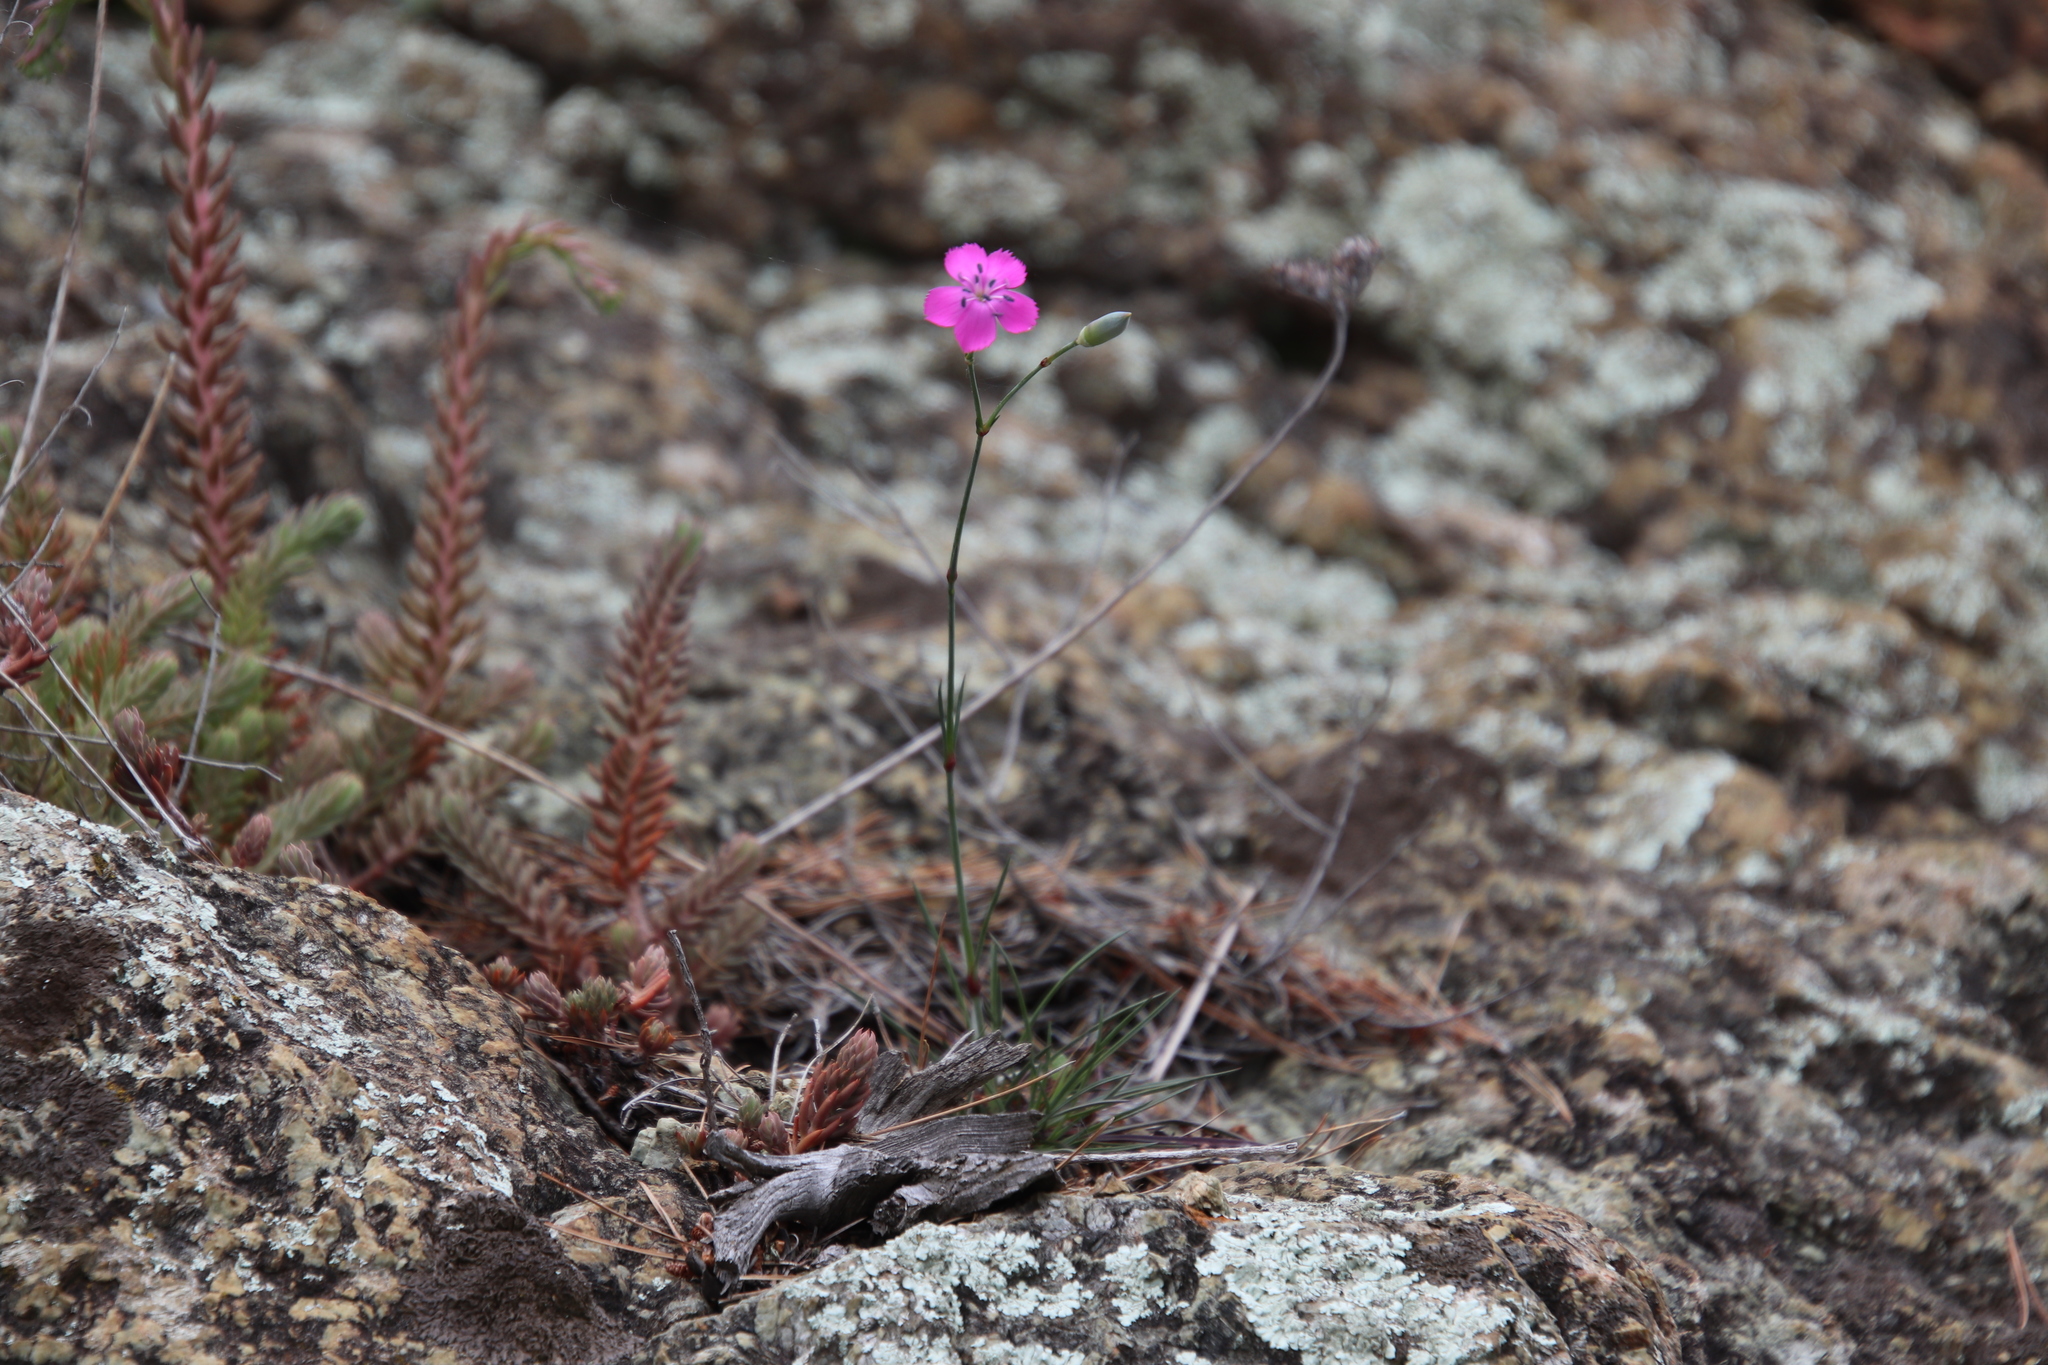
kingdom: Plantae
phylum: Tracheophyta
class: Magnoliopsida
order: Caryophyllales
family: Caryophyllaceae
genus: Dianthus
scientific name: Dianthus sylvestris
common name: Wood pink
